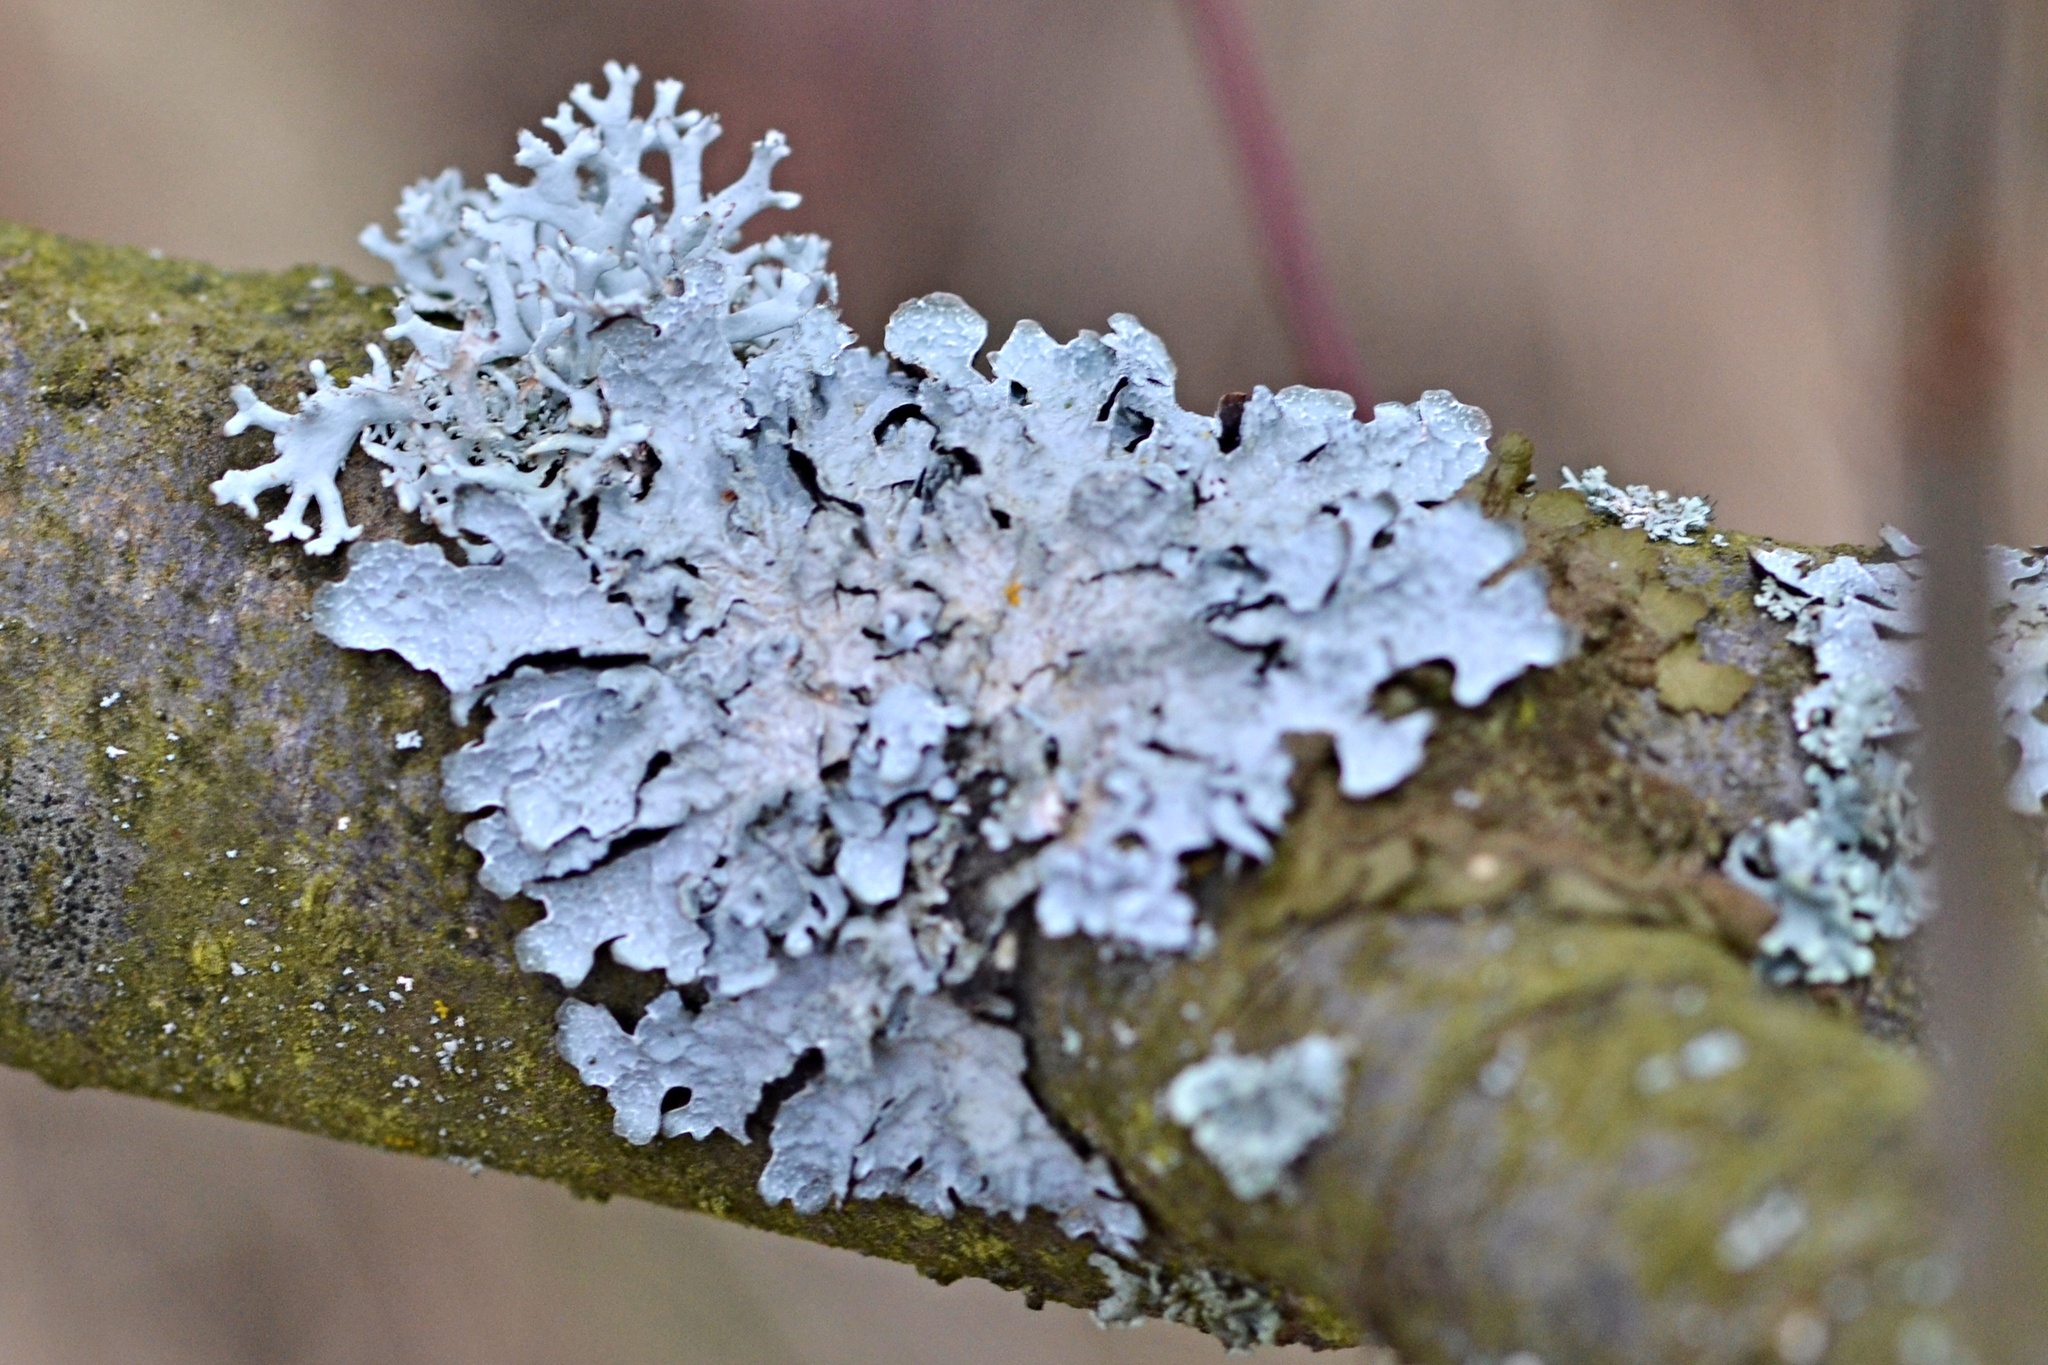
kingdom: Fungi
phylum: Ascomycota
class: Lecanoromycetes
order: Lecanorales
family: Parmeliaceae
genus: Parmelia
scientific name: Parmelia sulcata
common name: Netted shield lichen
